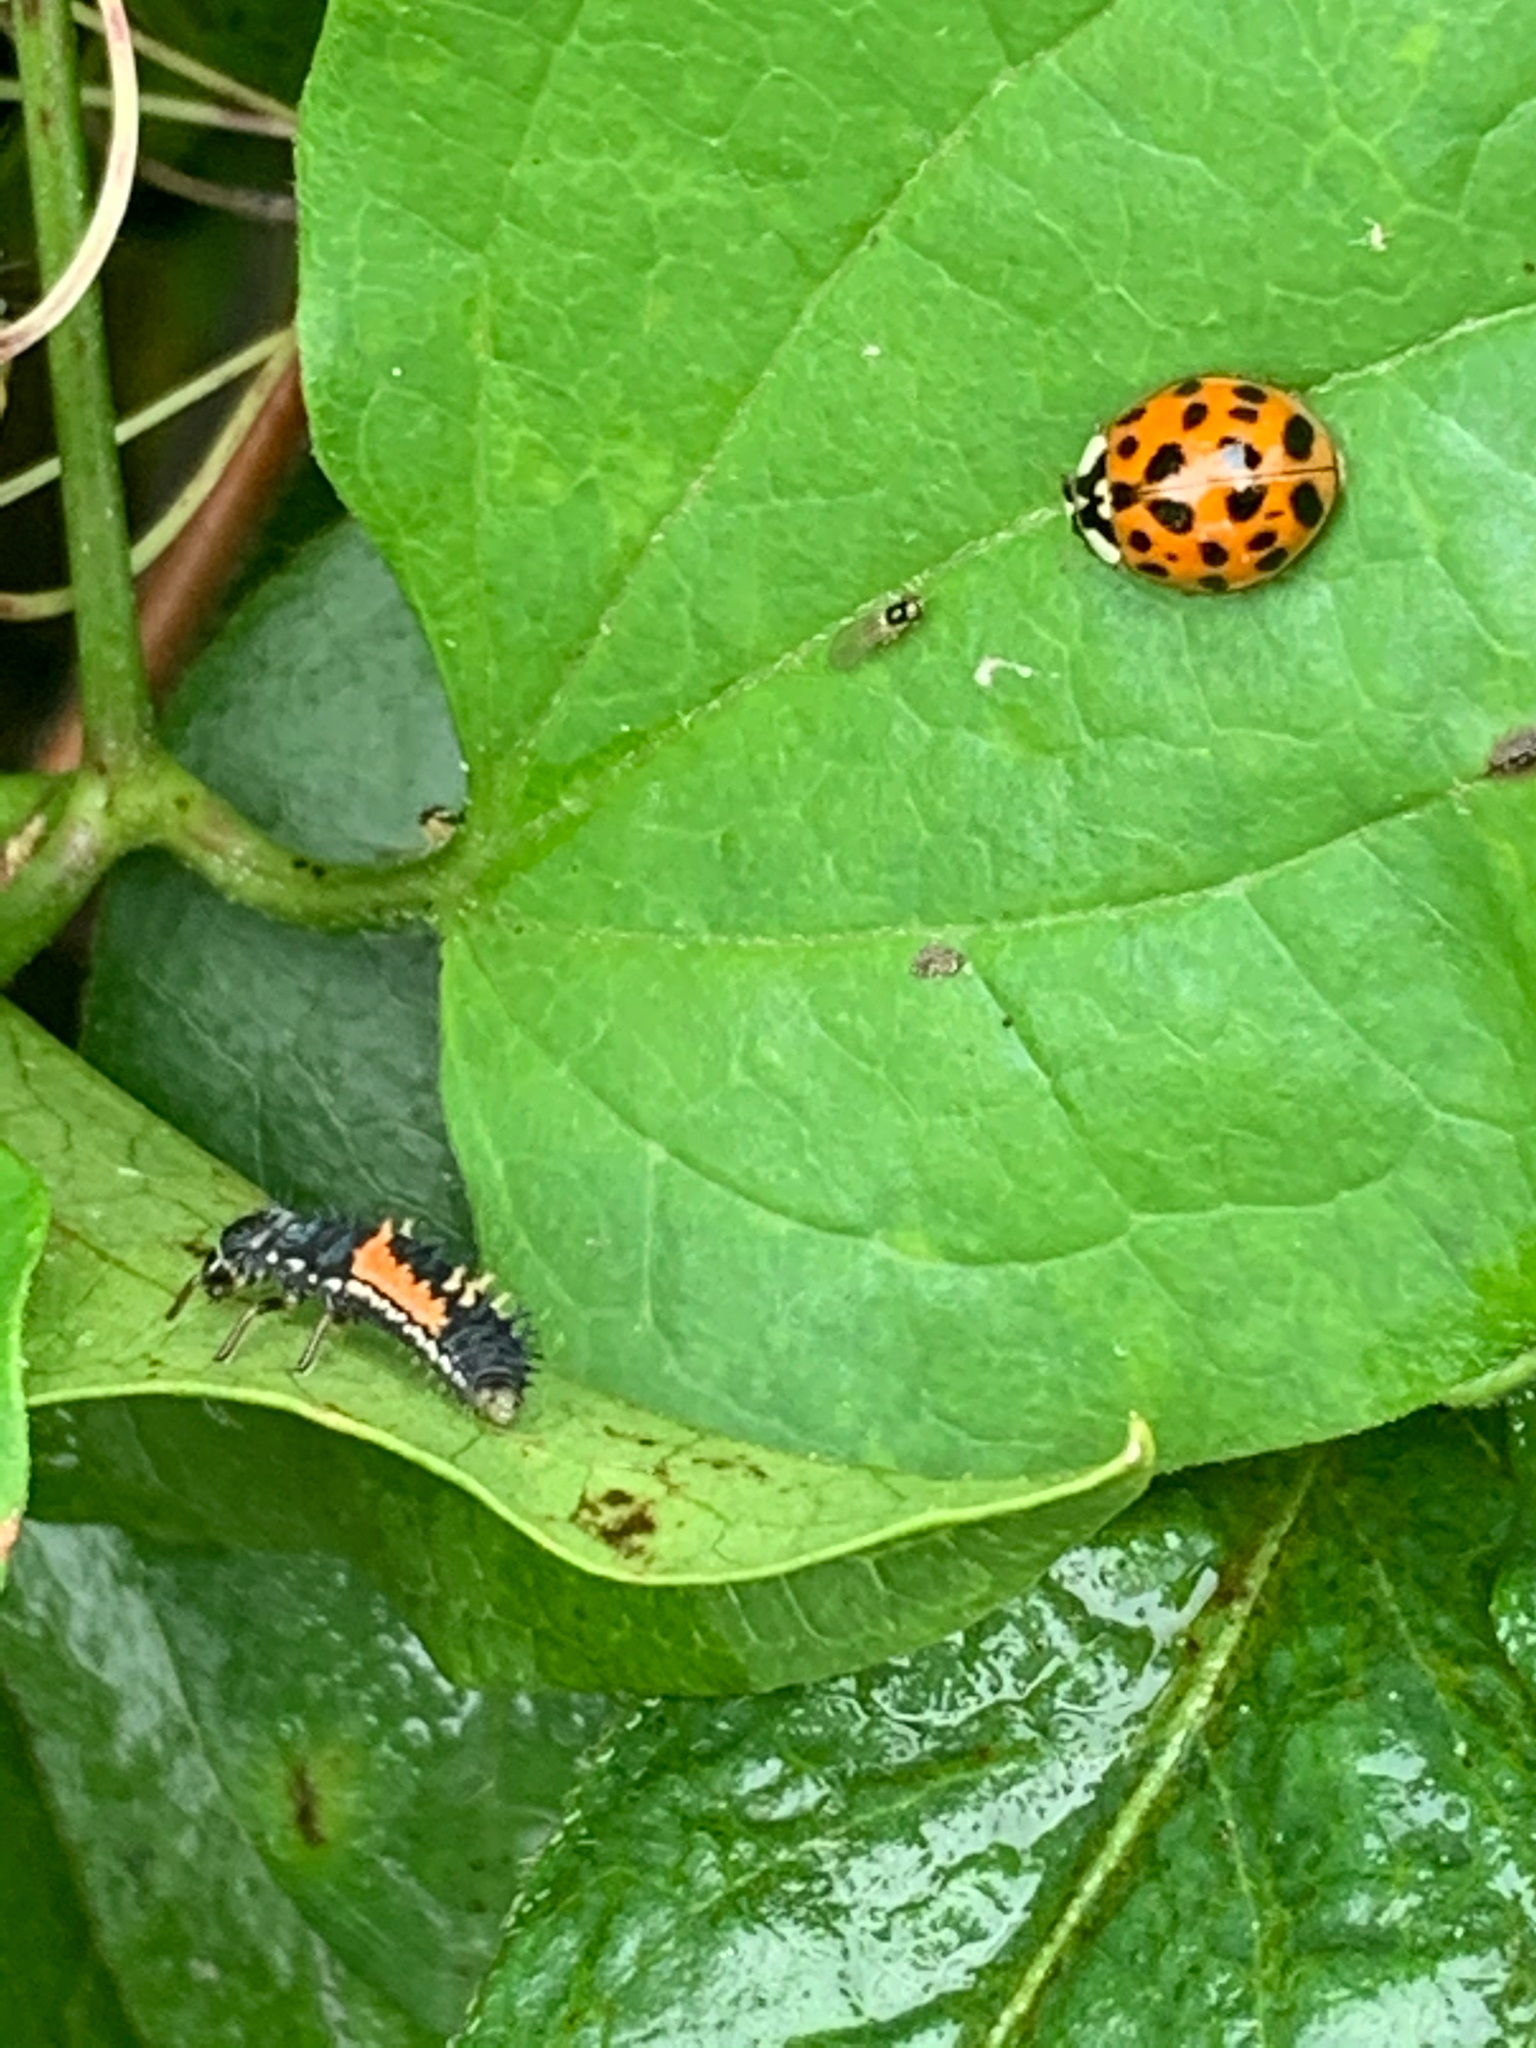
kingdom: Animalia
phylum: Arthropoda
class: Insecta
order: Coleoptera
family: Coccinellidae
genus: Harmonia
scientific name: Harmonia axyridis
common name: Harlequin ladybird
